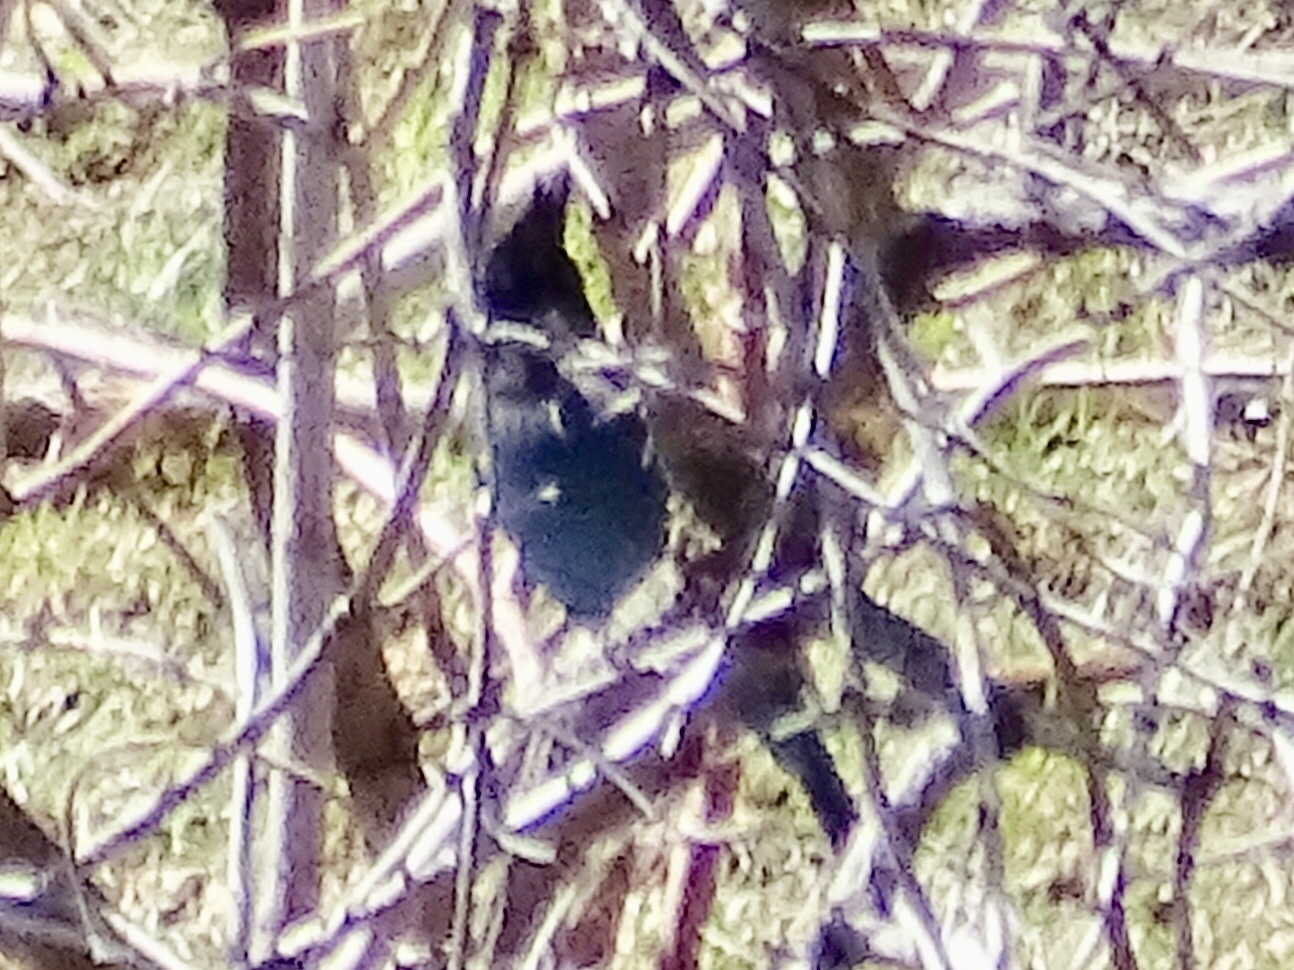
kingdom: Animalia
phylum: Chordata
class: Aves
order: Passeriformes
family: Corvidae
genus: Cyanocitta
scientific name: Cyanocitta stelleri
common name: Steller's jay
